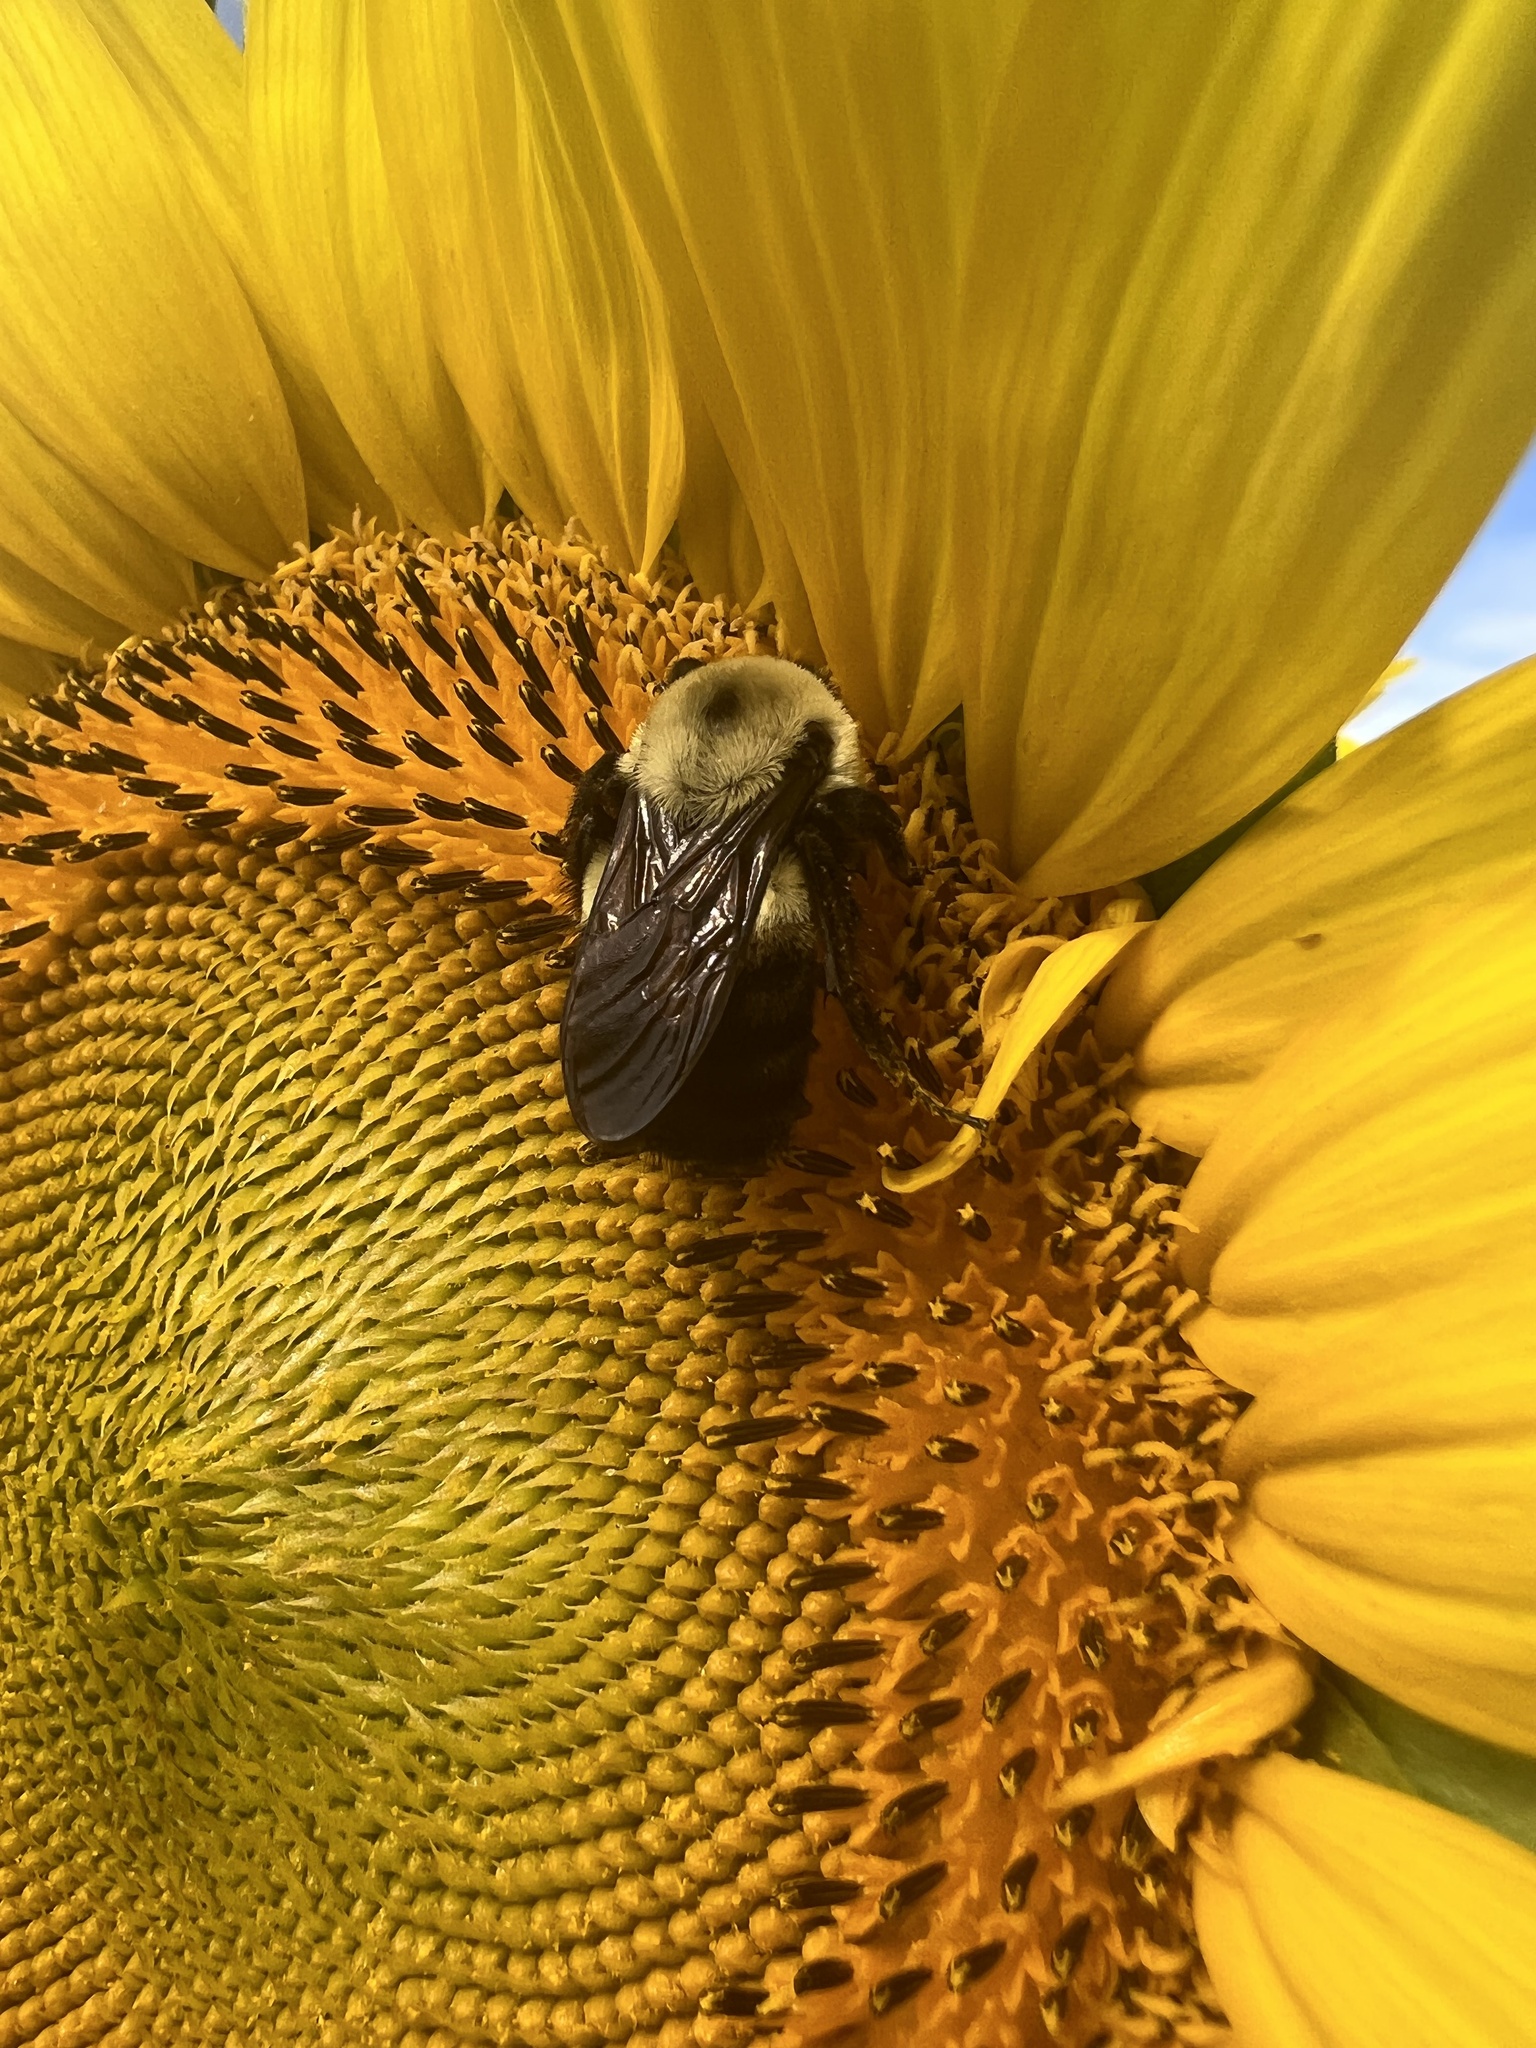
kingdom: Animalia
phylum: Arthropoda
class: Insecta
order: Hymenoptera
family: Apidae
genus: Bombus
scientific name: Bombus griseocollis
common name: Brown-belted bumble bee
